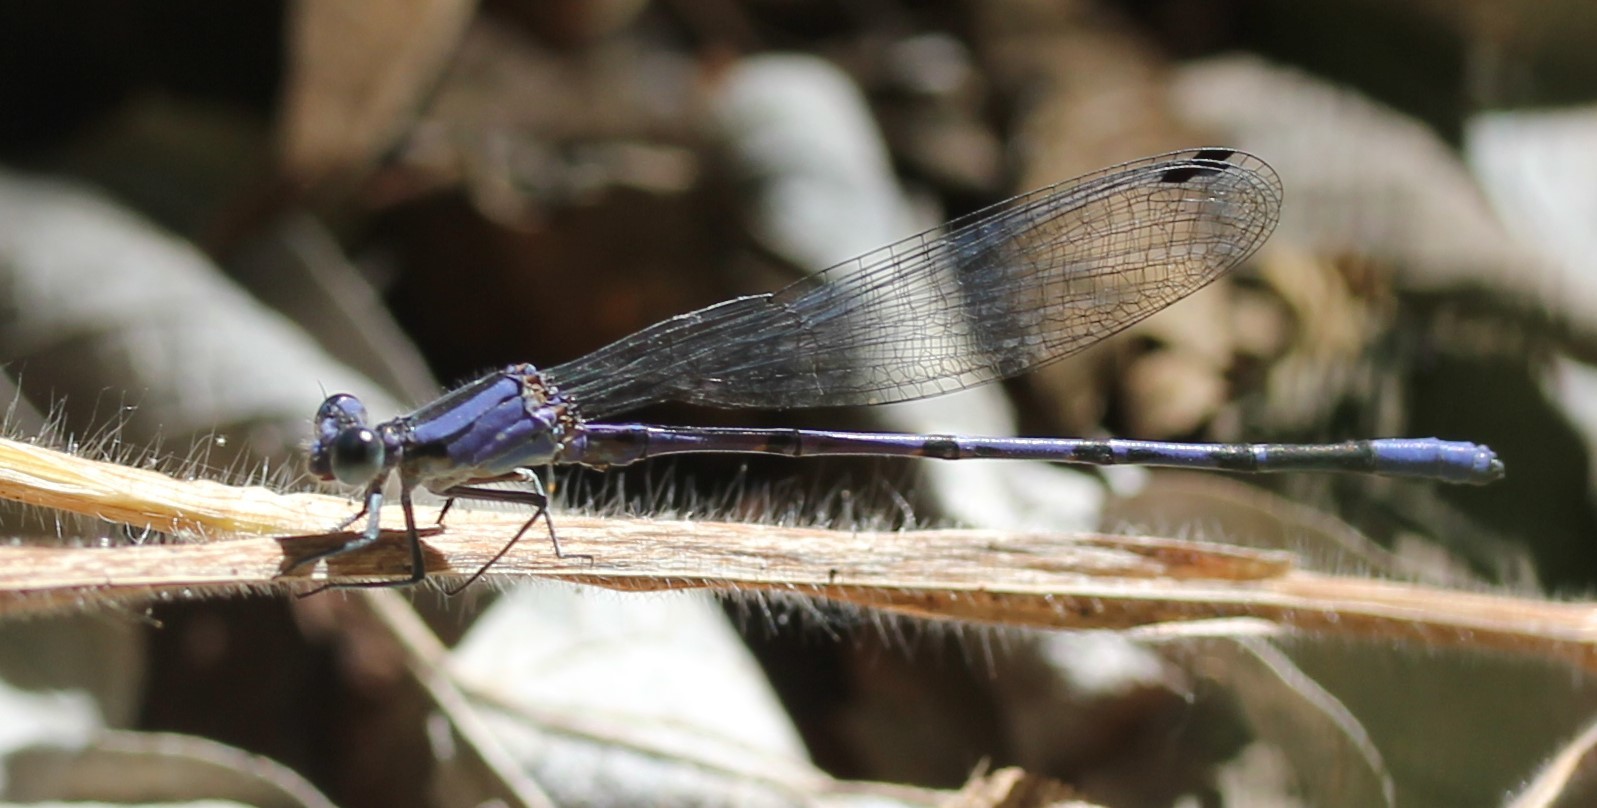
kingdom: Animalia
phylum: Arthropoda
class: Insecta
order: Odonata
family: Coenagrionidae
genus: Argia
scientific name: Argia funebris
